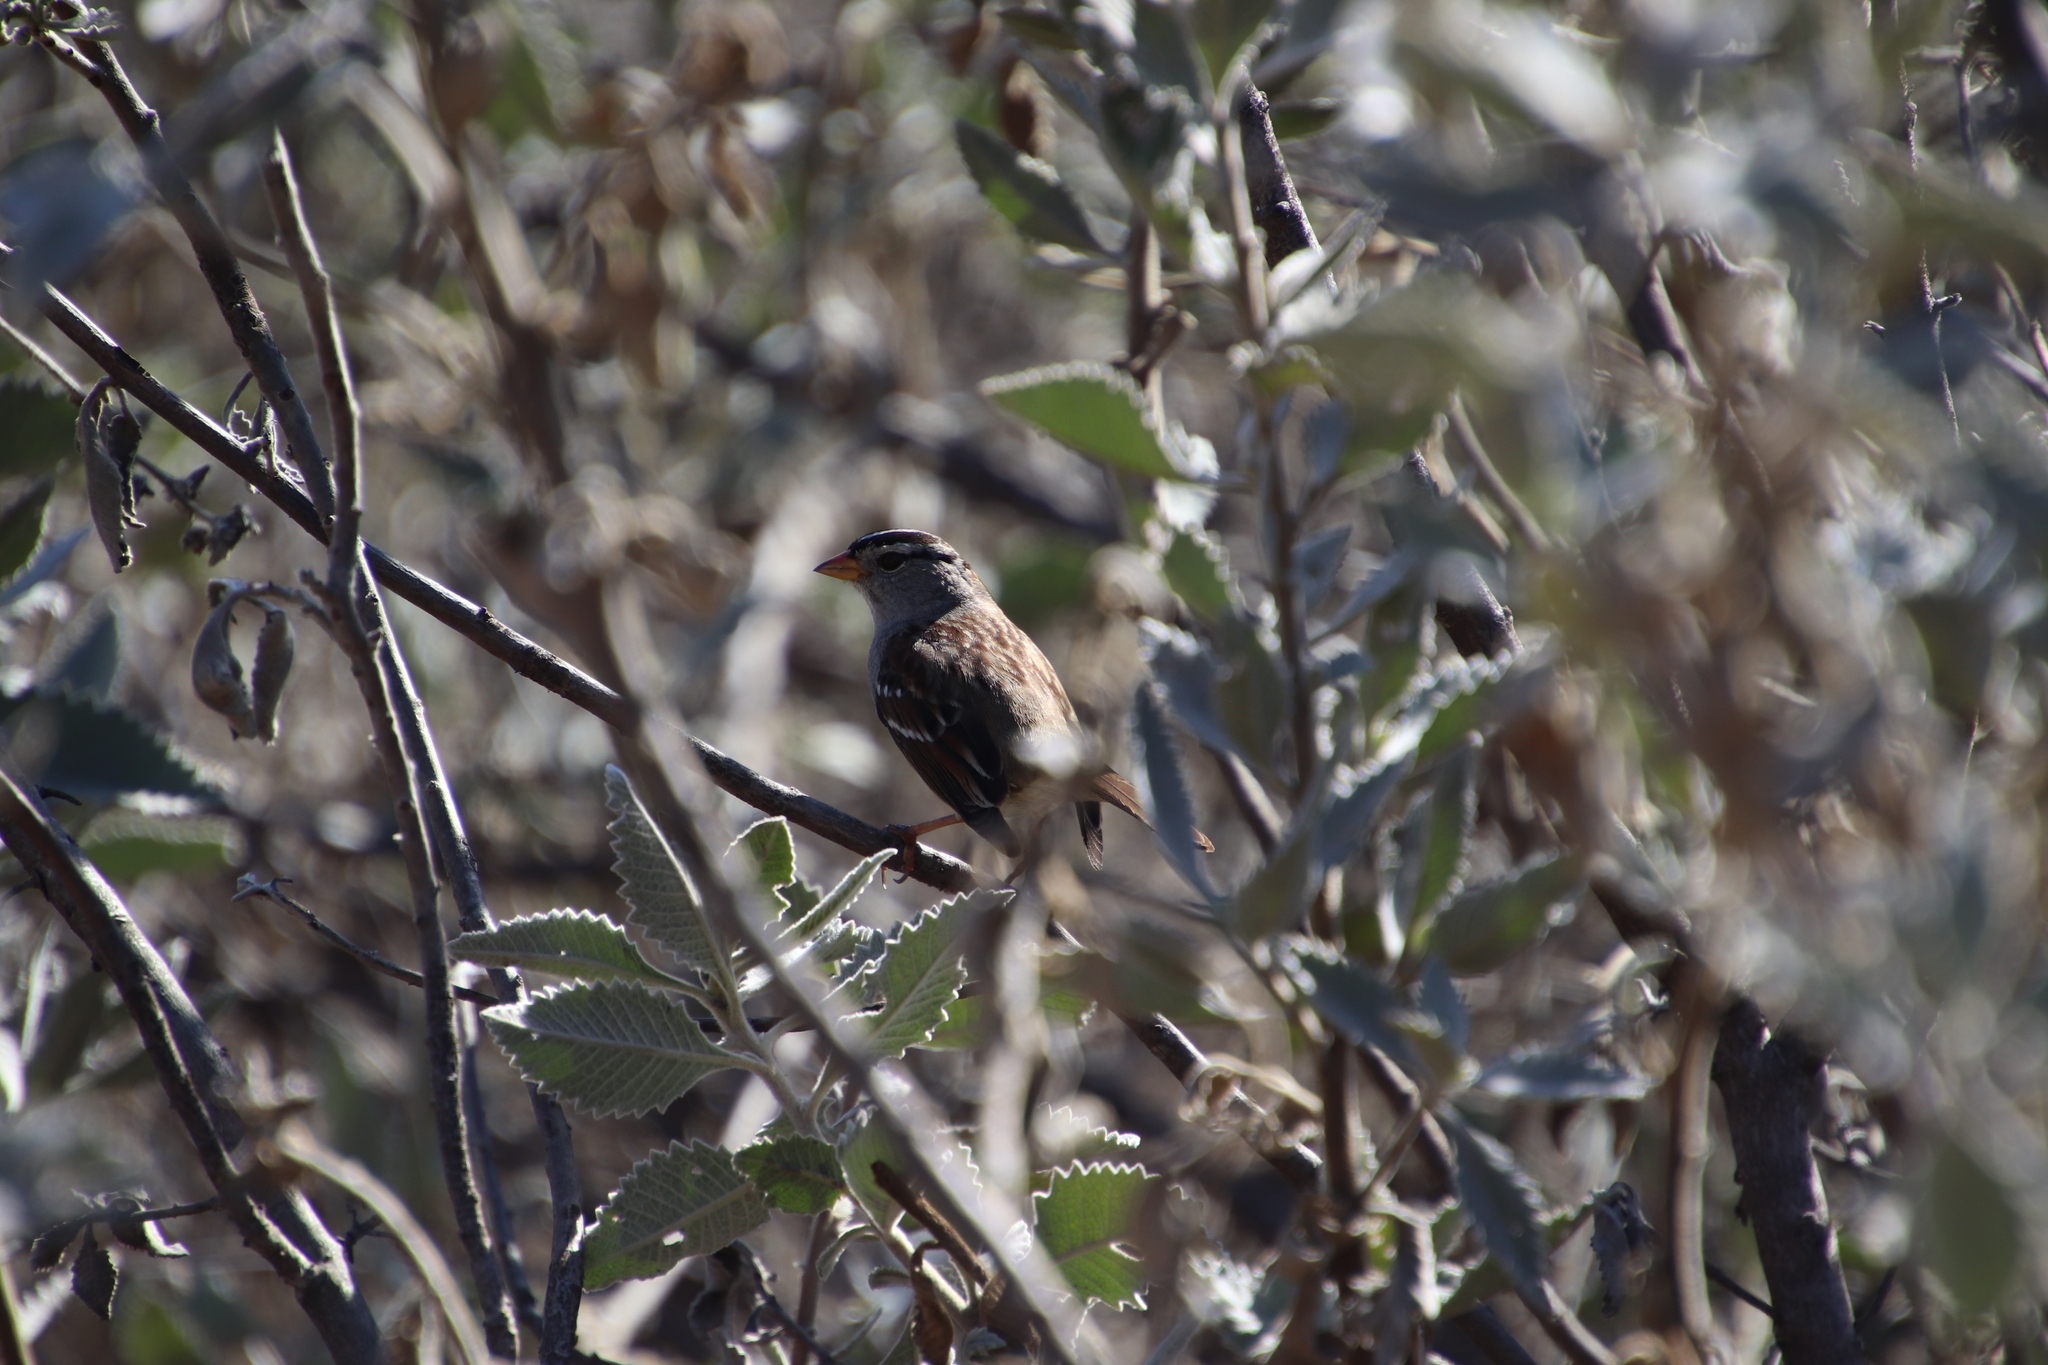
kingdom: Animalia
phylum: Chordata
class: Aves
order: Passeriformes
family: Passerellidae
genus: Zonotrichia
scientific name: Zonotrichia leucophrys
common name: White-crowned sparrow
